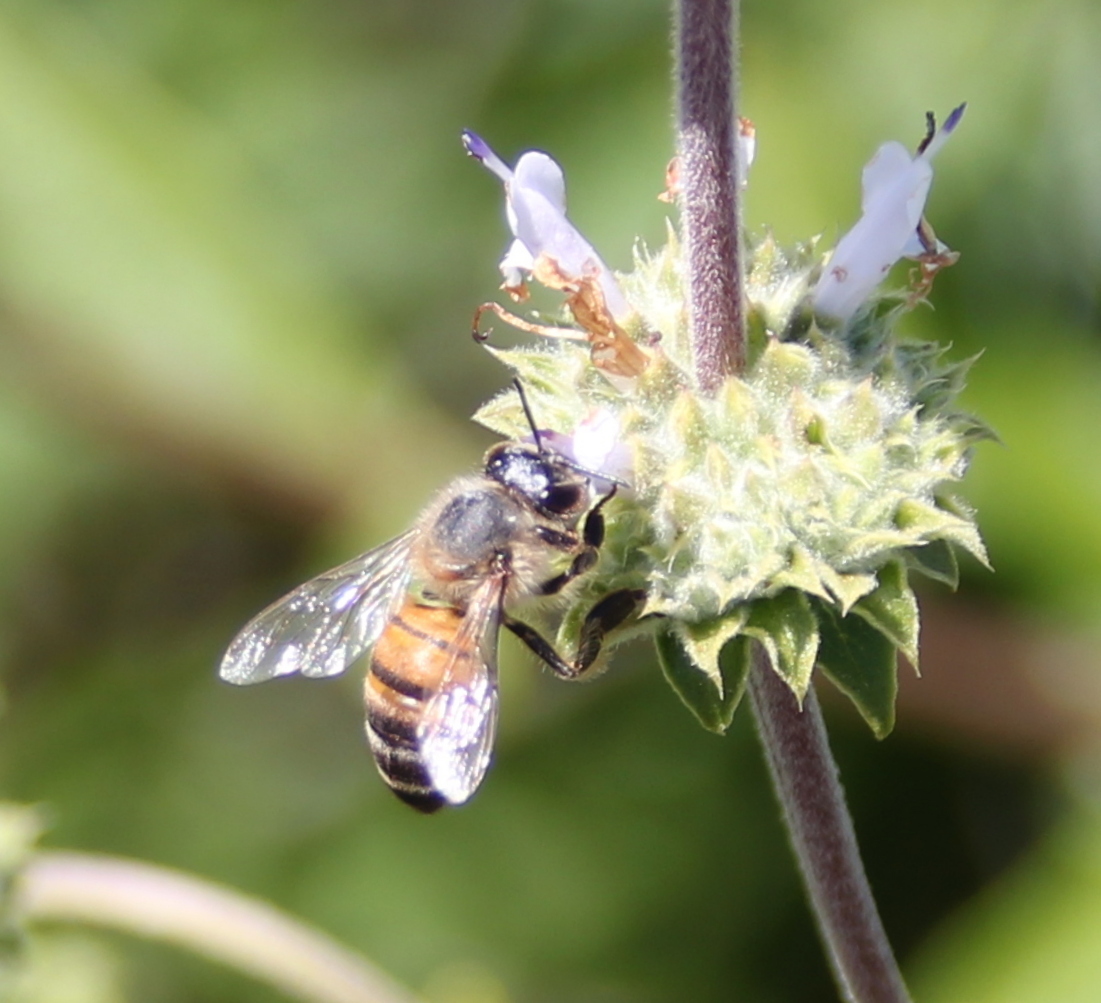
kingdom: Animalia
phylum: Arthropoda
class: Insecta
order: Hymenoptera
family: Apidae
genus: Apis
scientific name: Apis mellifera
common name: Honey bee
